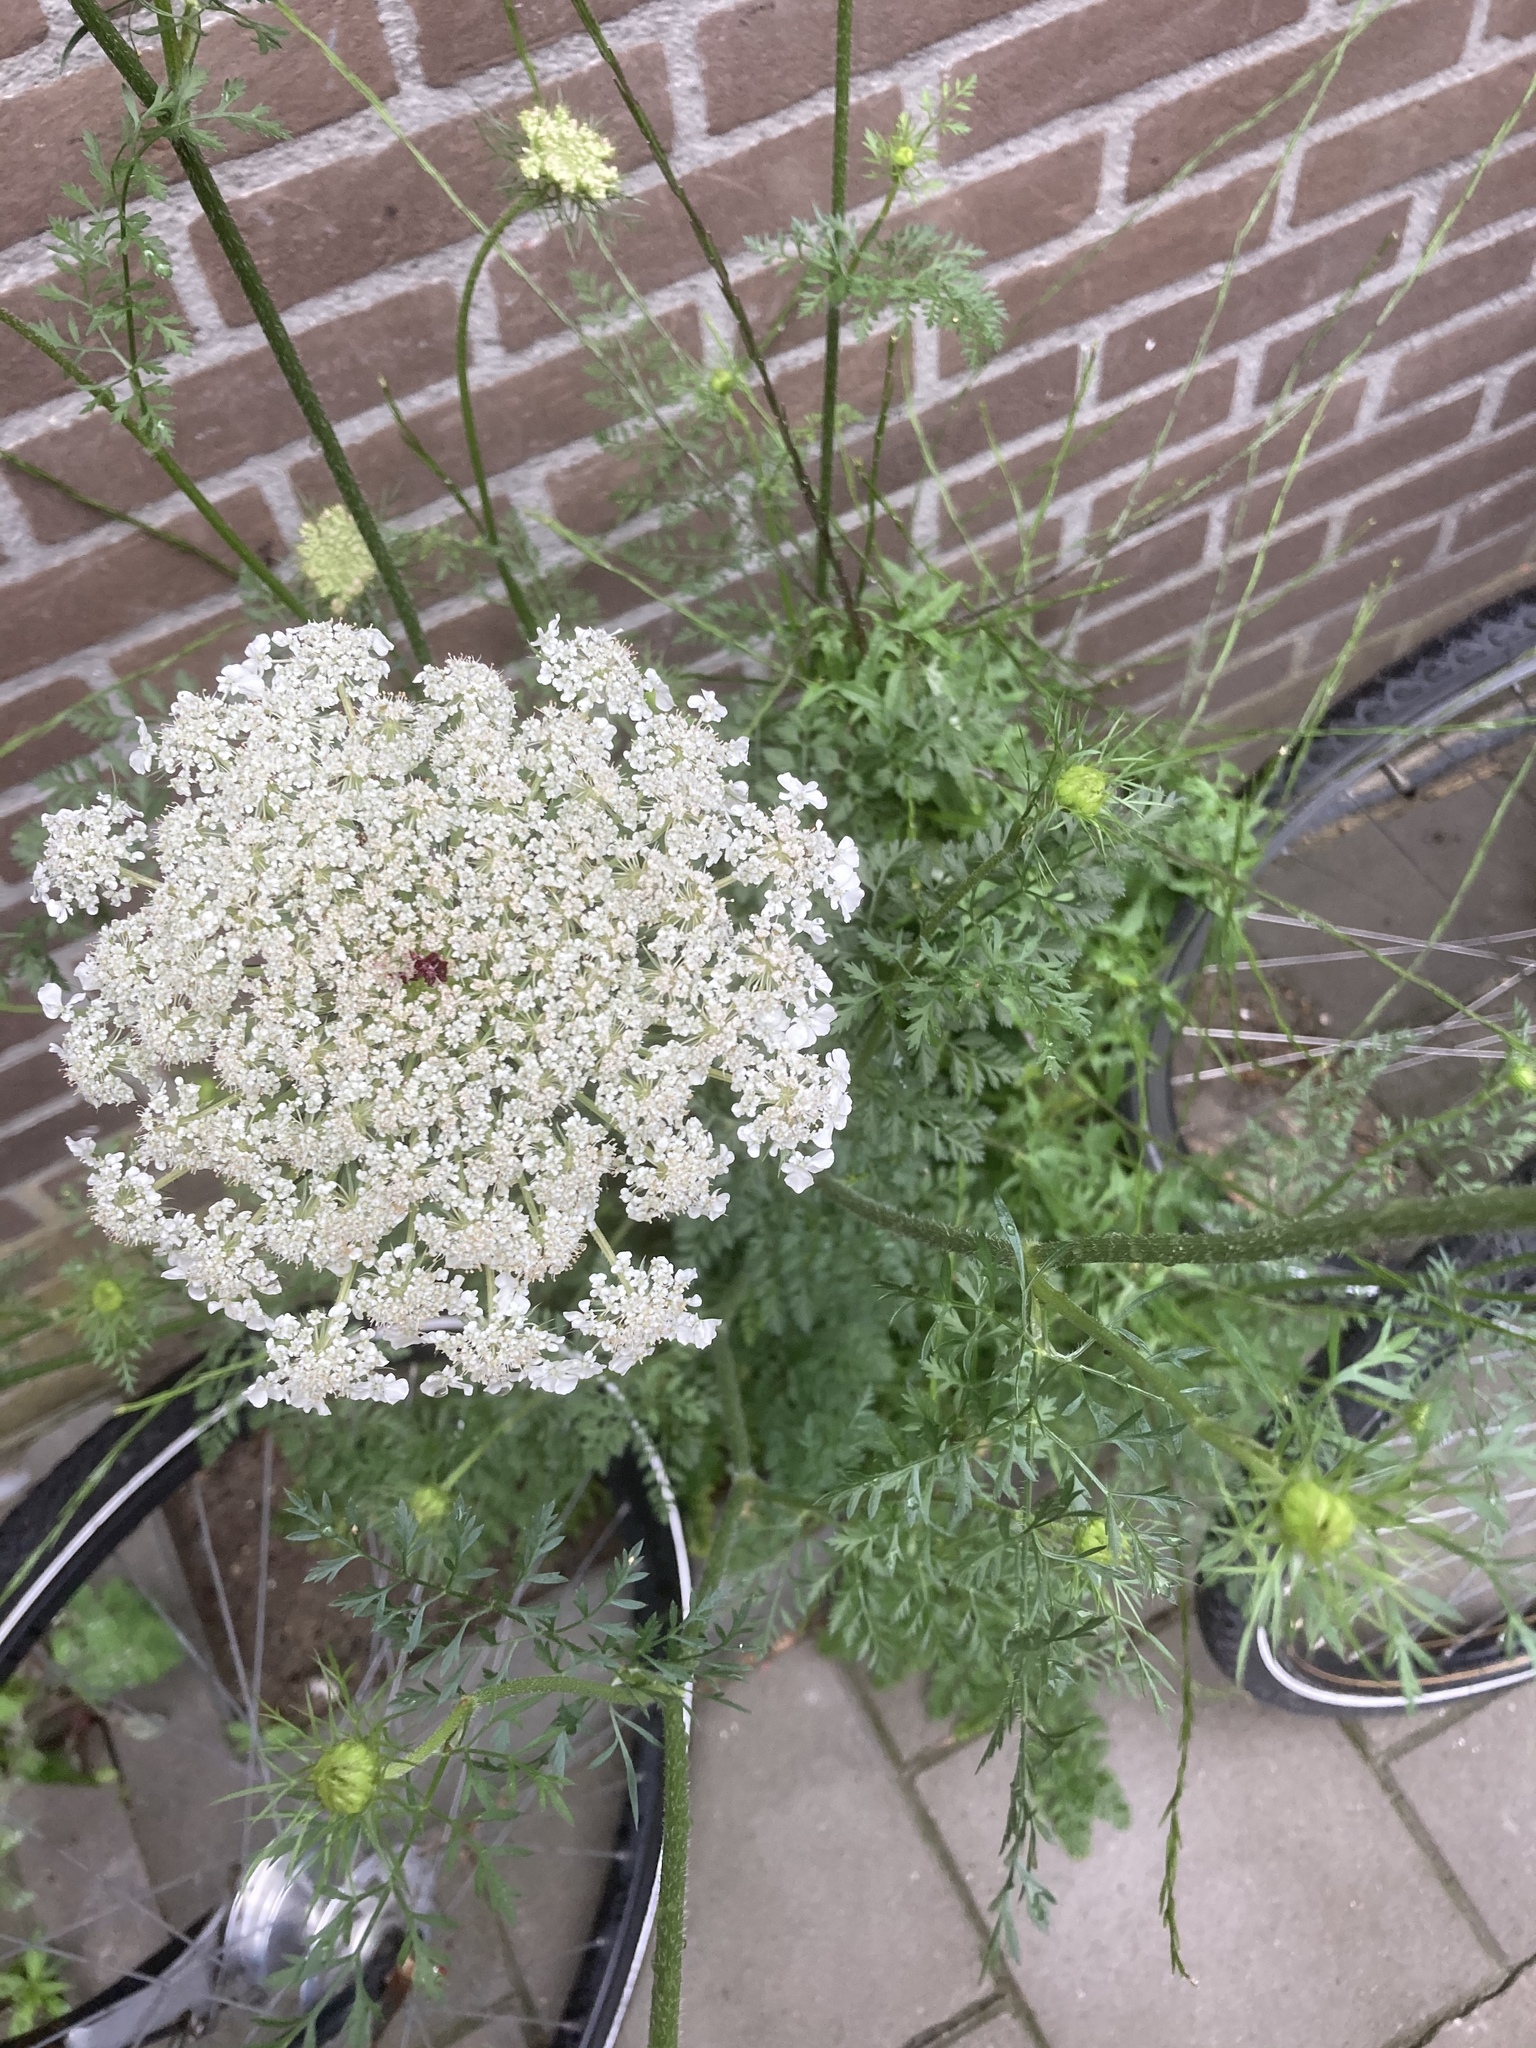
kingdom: Plantae
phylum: Tracheophyta
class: Magnoliopsida
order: Apiales
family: Apiaceae
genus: Daucus
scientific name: Daucus carota
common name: Wild carrot
